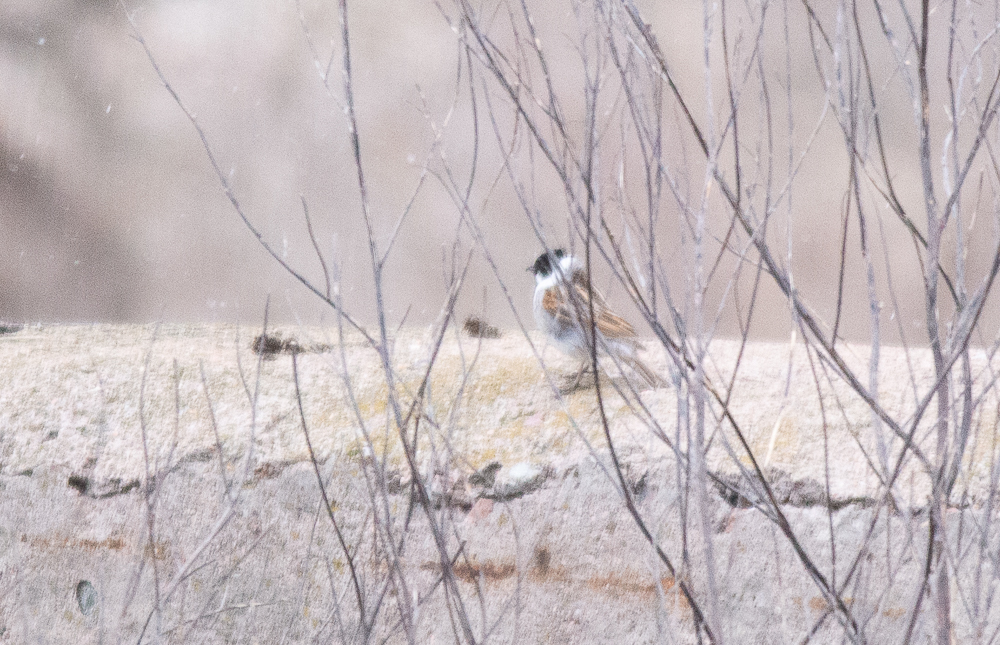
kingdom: Animalia
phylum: Chordata
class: Aves
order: Passeriformes
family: Emberizidae
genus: Emberiza
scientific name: Emberiza schoeniclus
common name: Reed bunting
